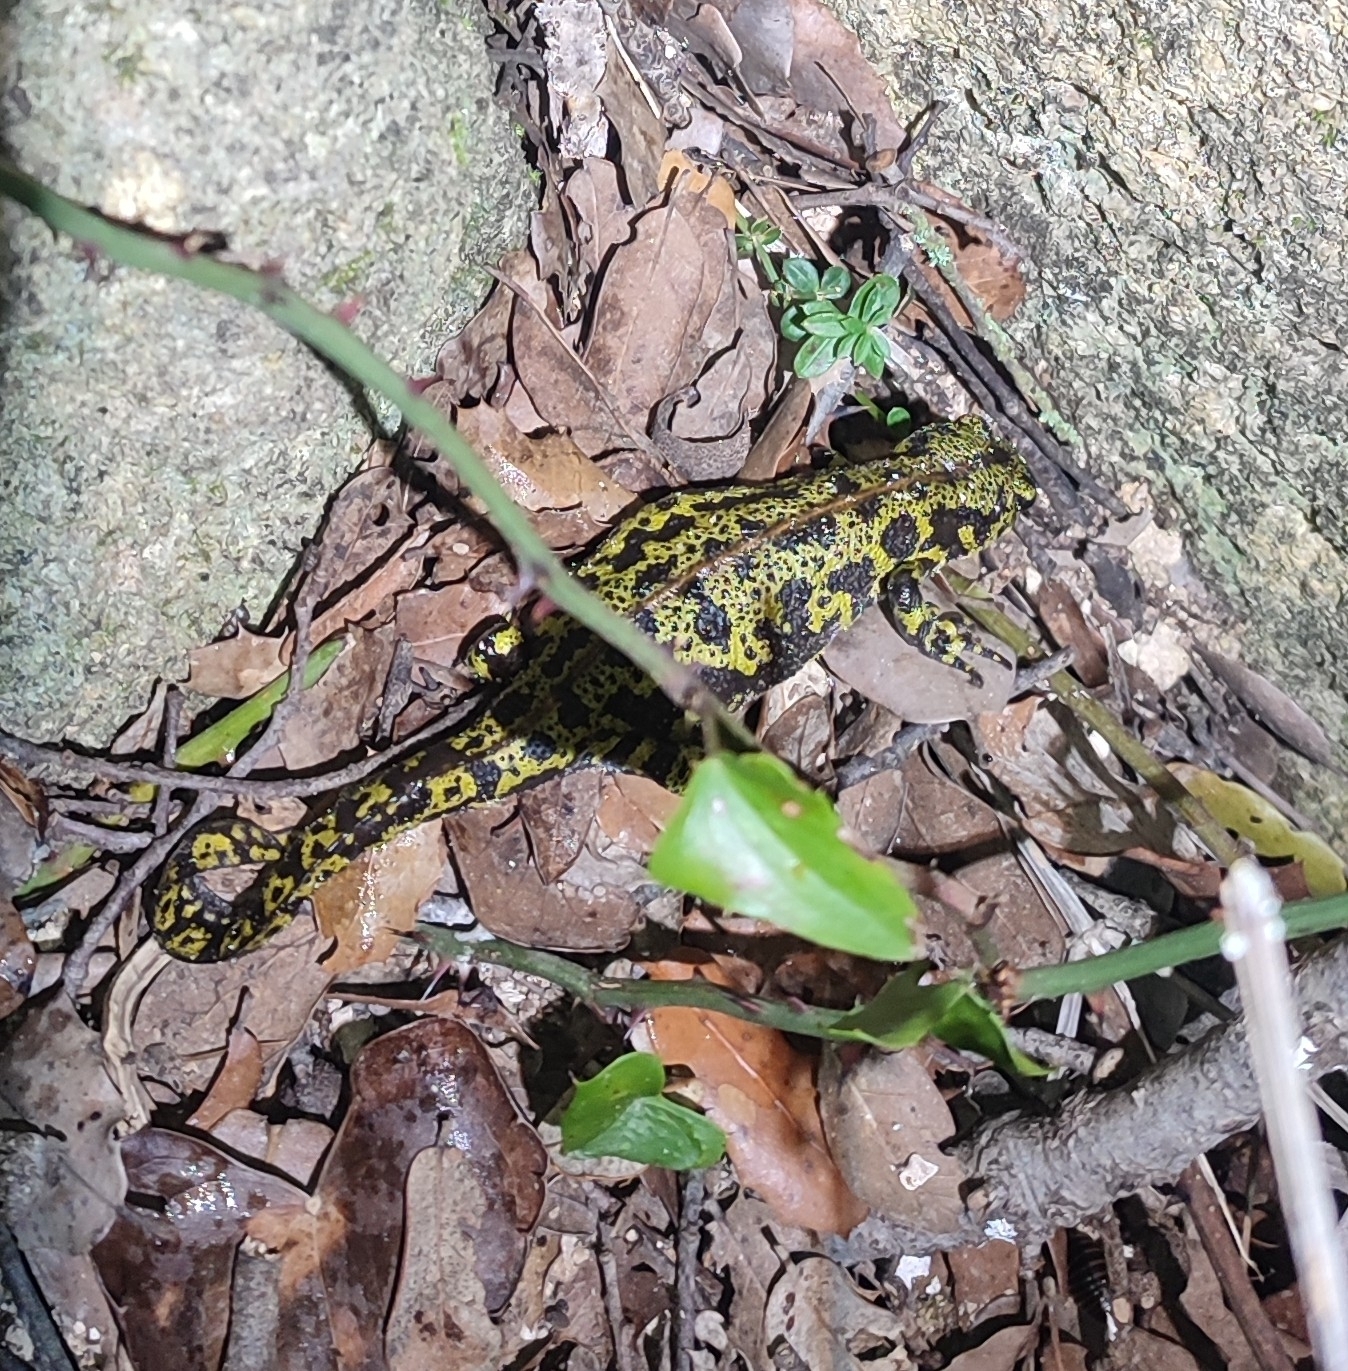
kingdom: Animalia
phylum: Chordata
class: Amphibia
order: Caudata
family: Salamandridae
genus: Triturus
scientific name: Triturus marmoratus
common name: Marbled newt
